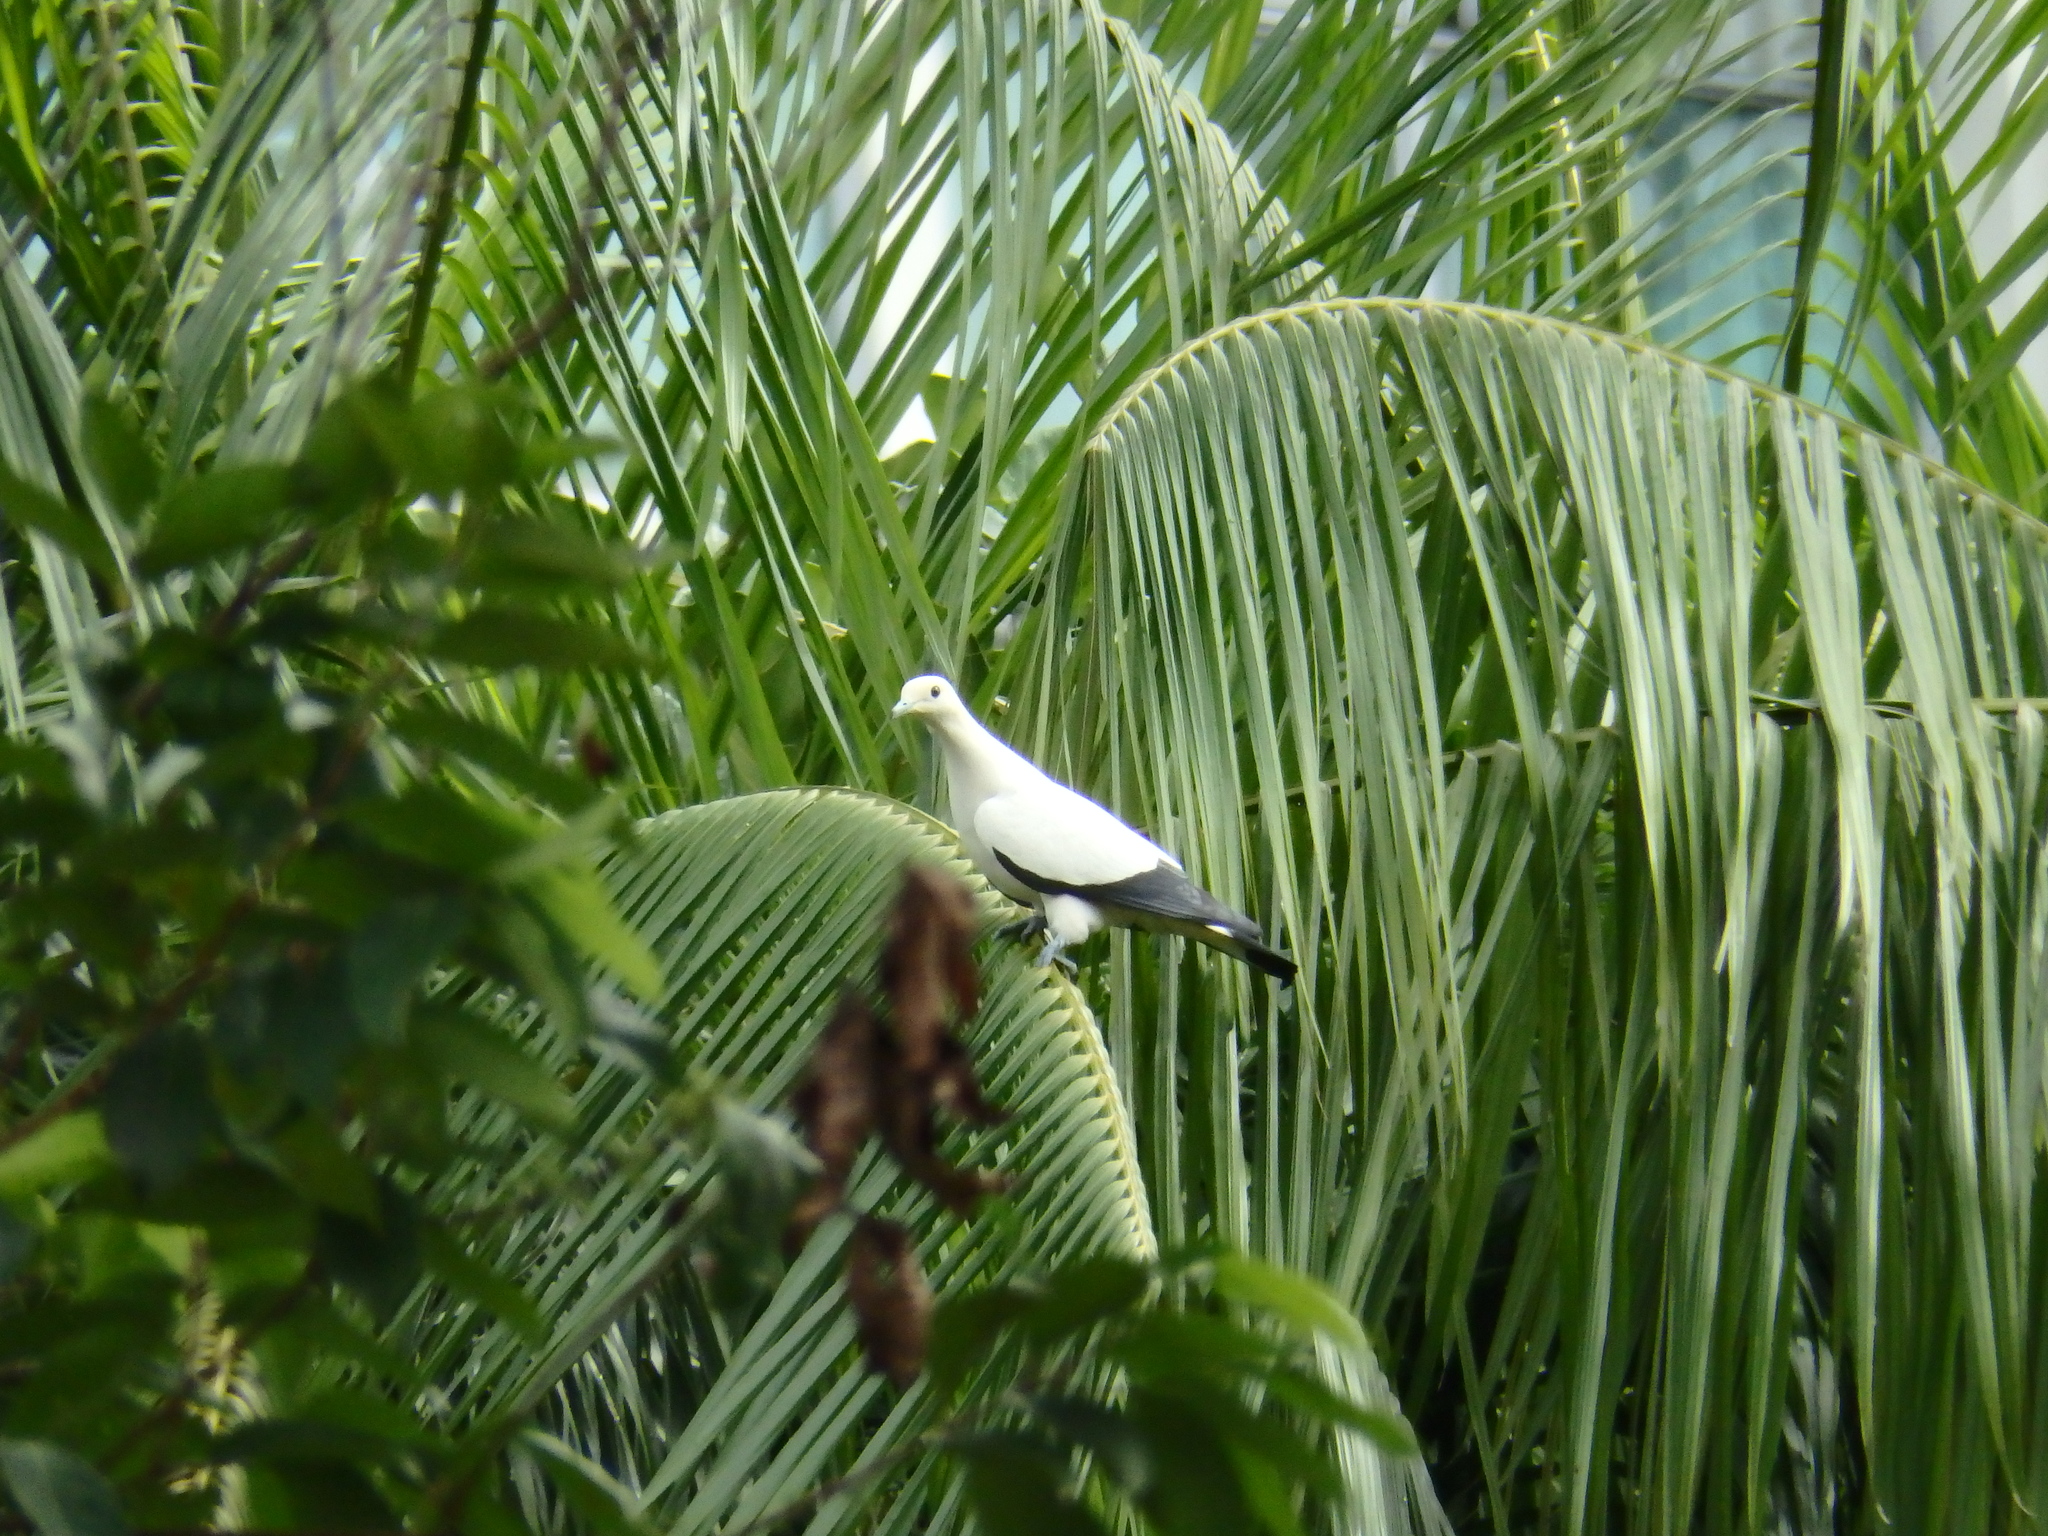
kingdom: Animalia
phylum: Chordata
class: Aves
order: Columbiformes
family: Columbidae
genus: Ducula
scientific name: Ducula bicolor
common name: Pied imperial pigeon
